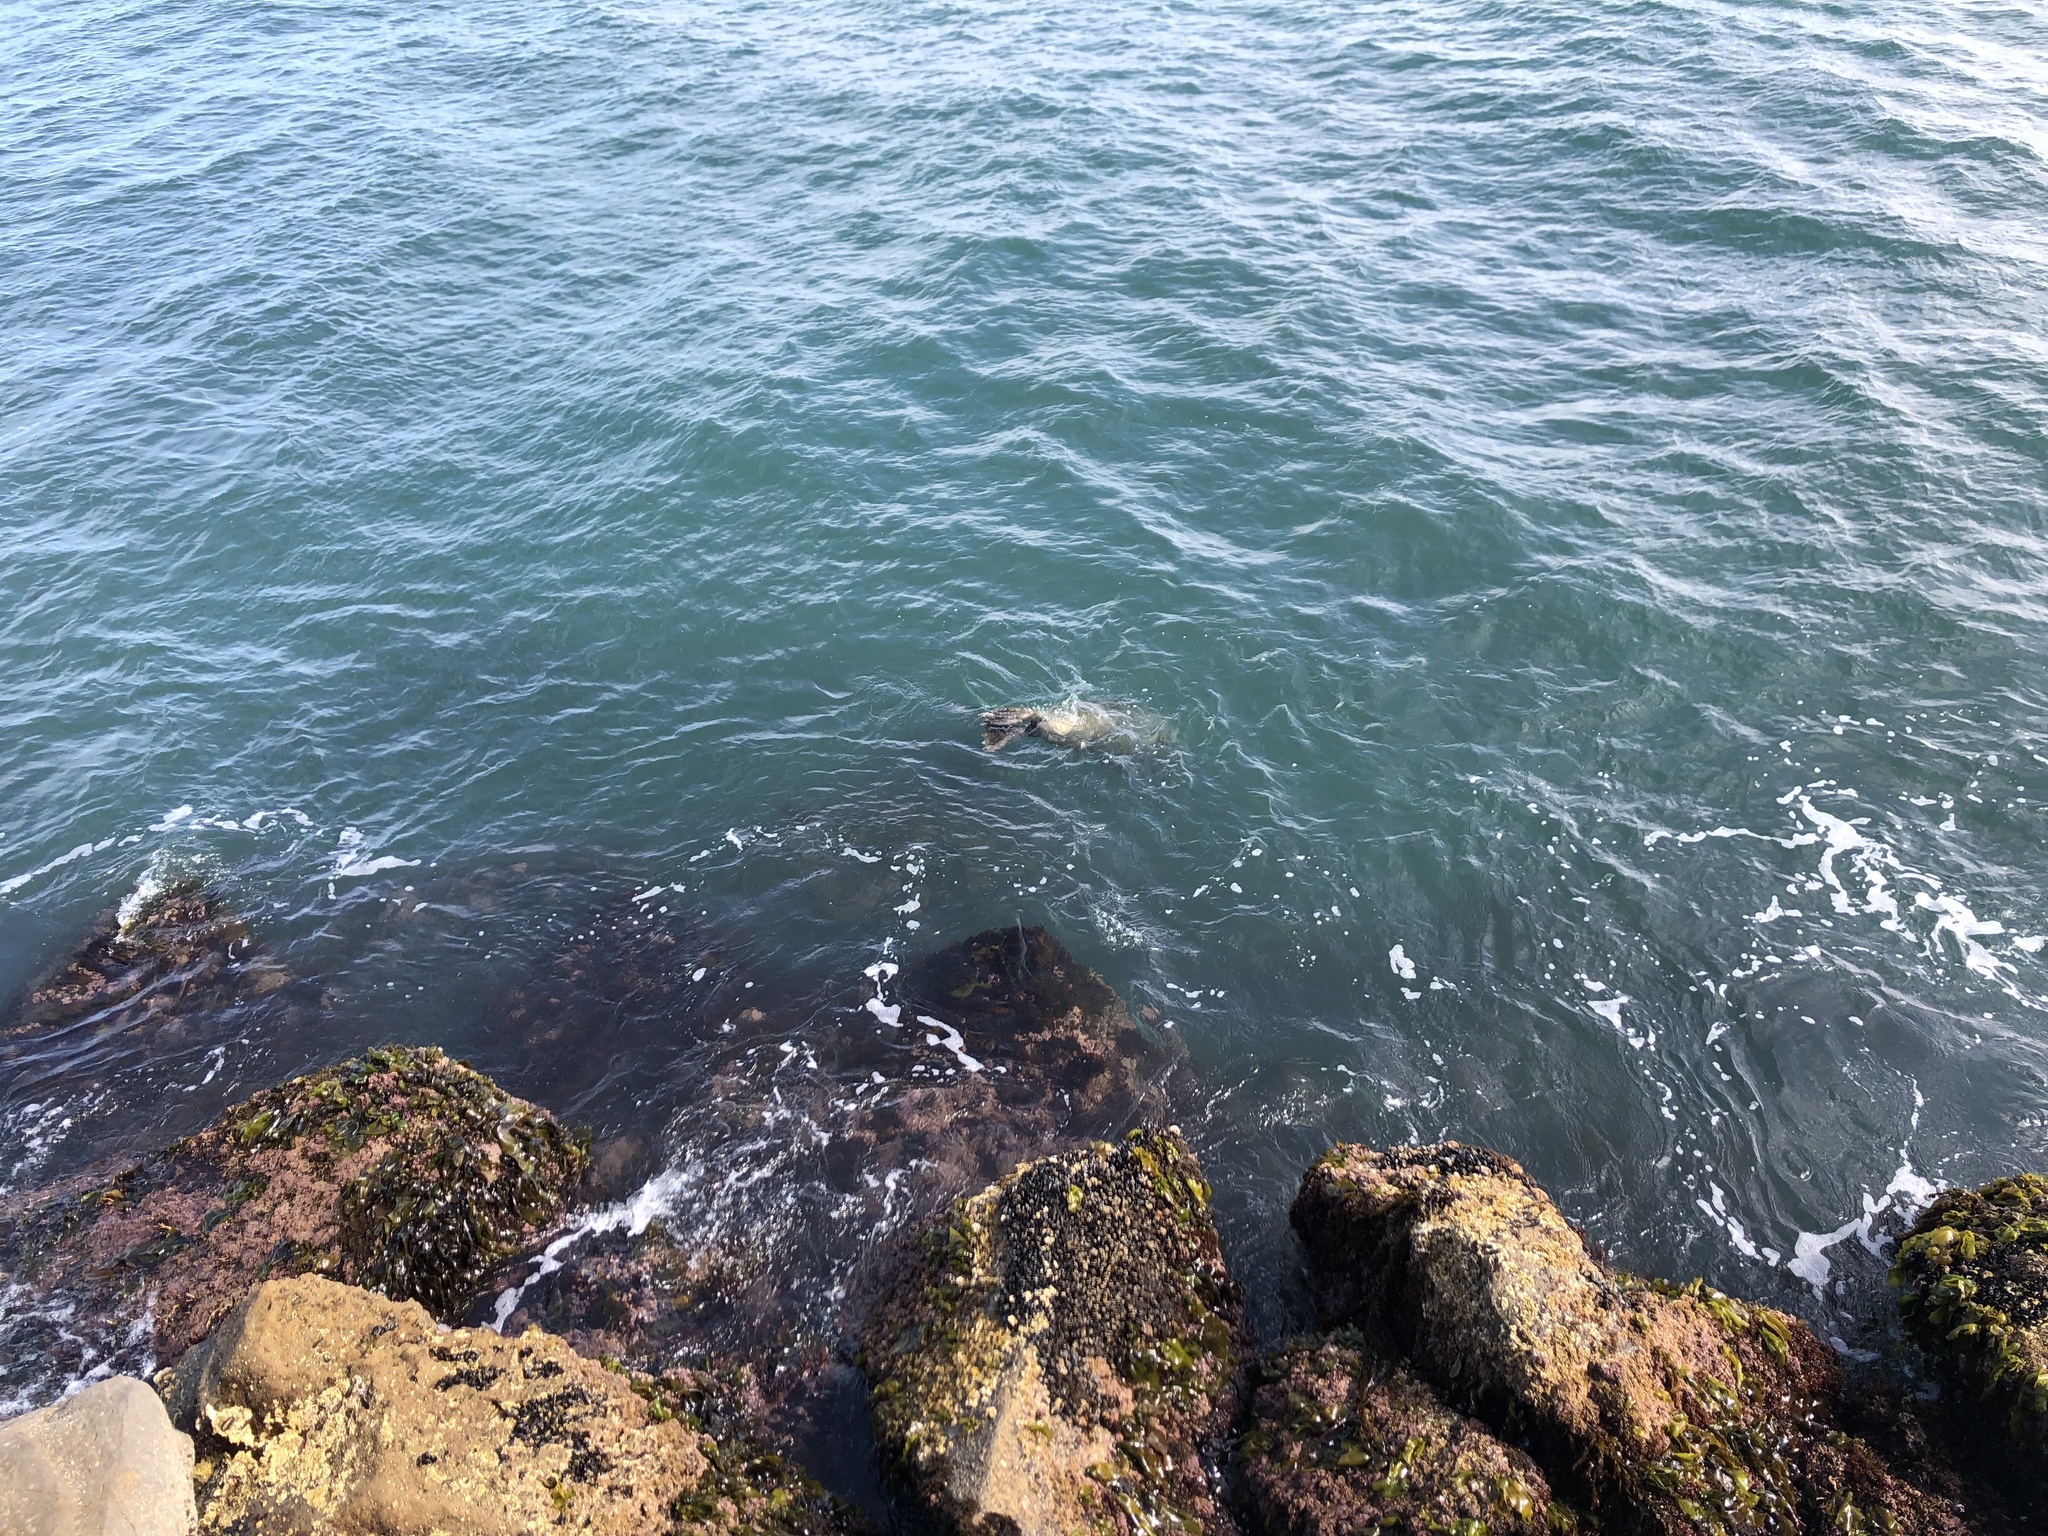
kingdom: Animalia
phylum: Chordata
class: Mammalia
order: Carnivora
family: Phocidae
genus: Phoca
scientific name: Phoca vitulina
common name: Harbor seal
